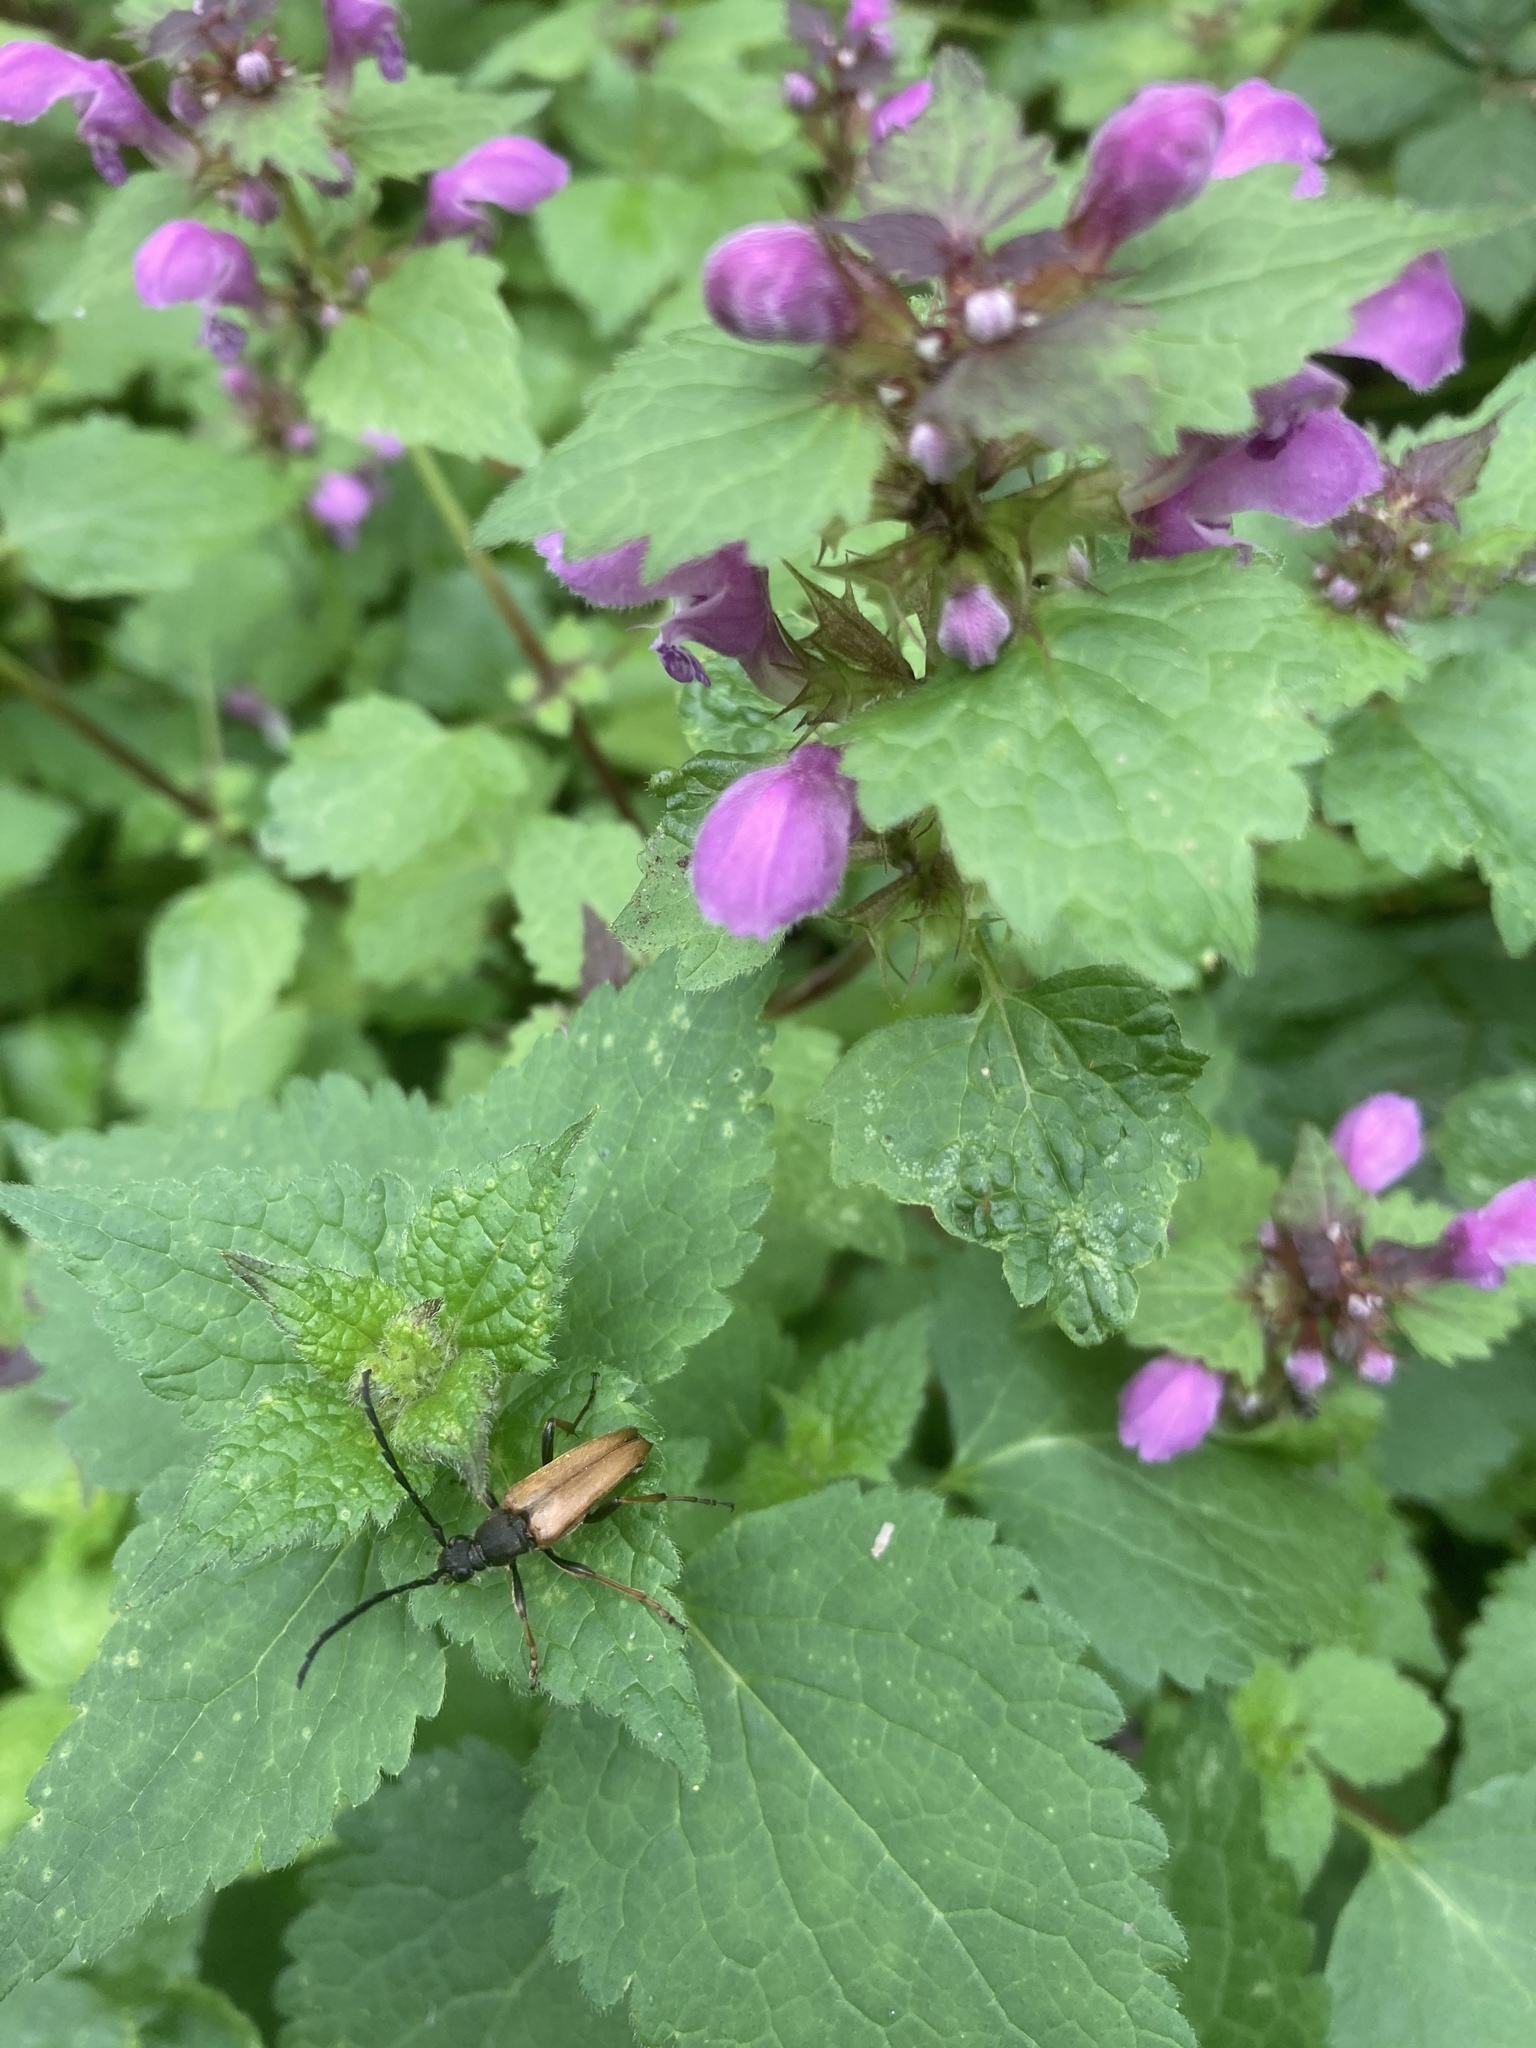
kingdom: Animalia
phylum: Arthropoda
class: Insecta
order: Coleoptera
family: Cerambycidae
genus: Stictoleptura
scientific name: Stictoleptura rubra
